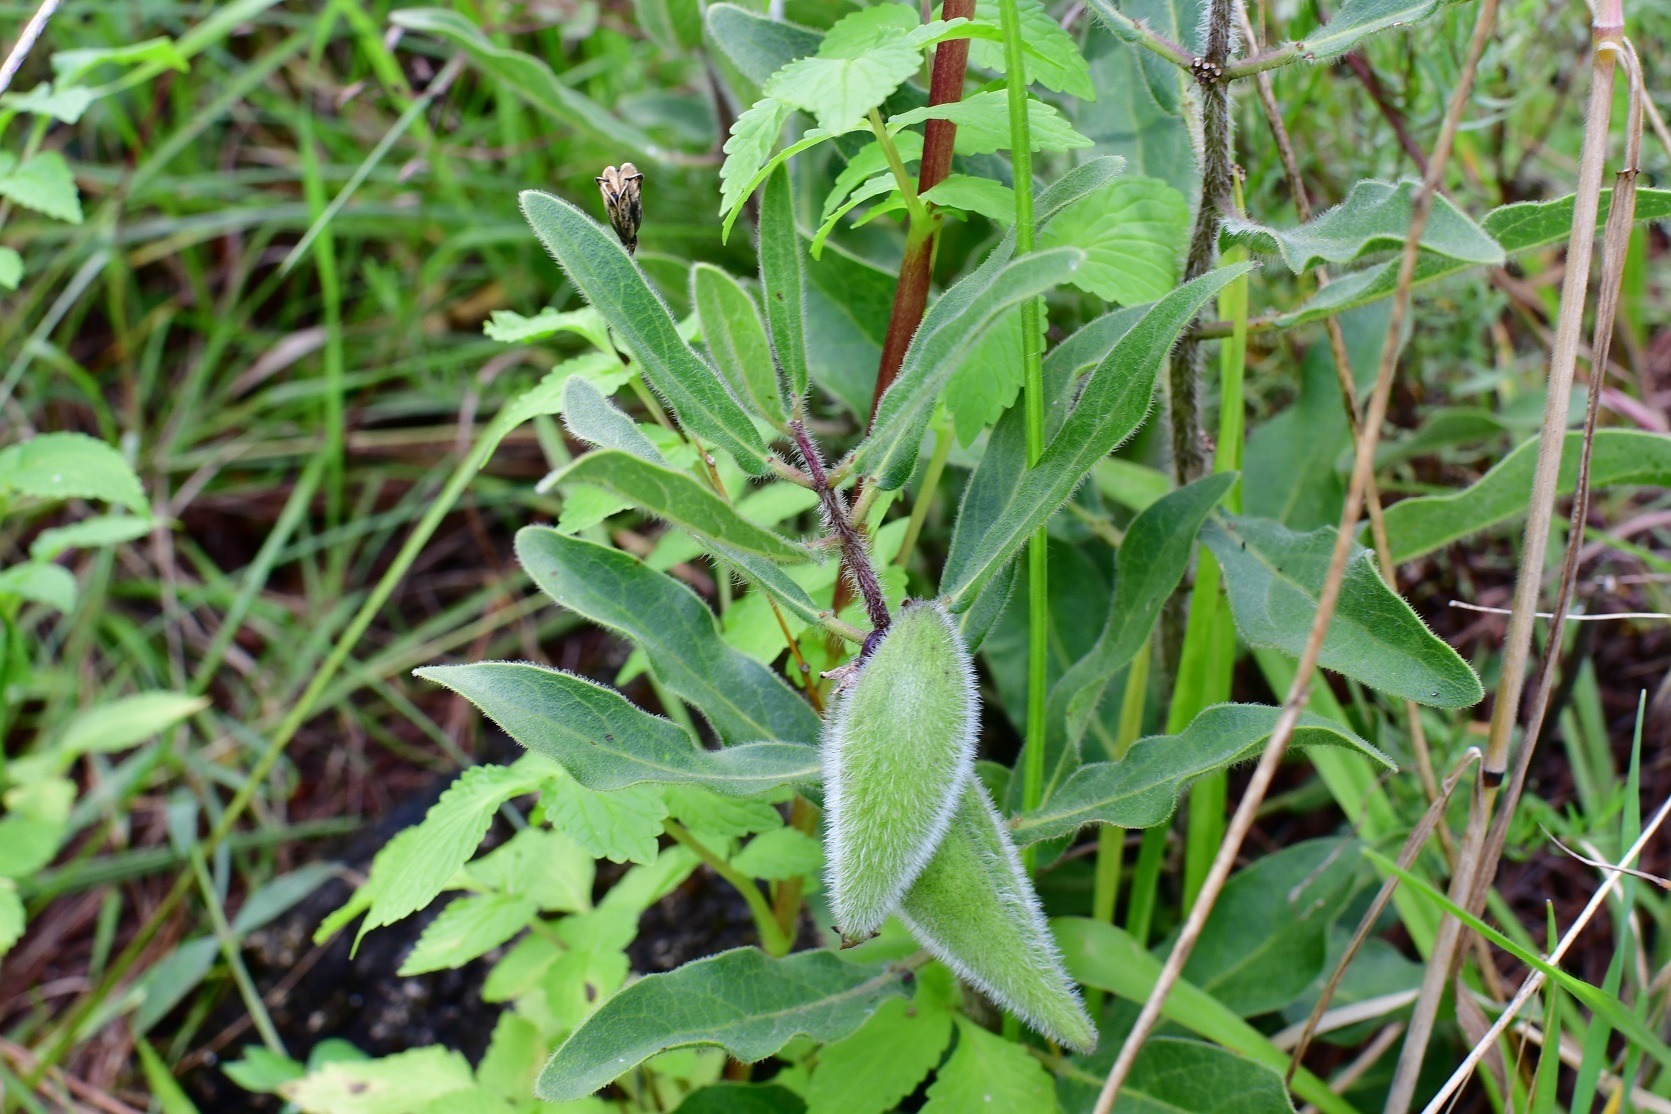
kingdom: Plantae
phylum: Tracheophyta
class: Magnoliopsida
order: Gentianales
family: Apocynaceae
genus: Pherotrichis
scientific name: Pherotrichis villosa
